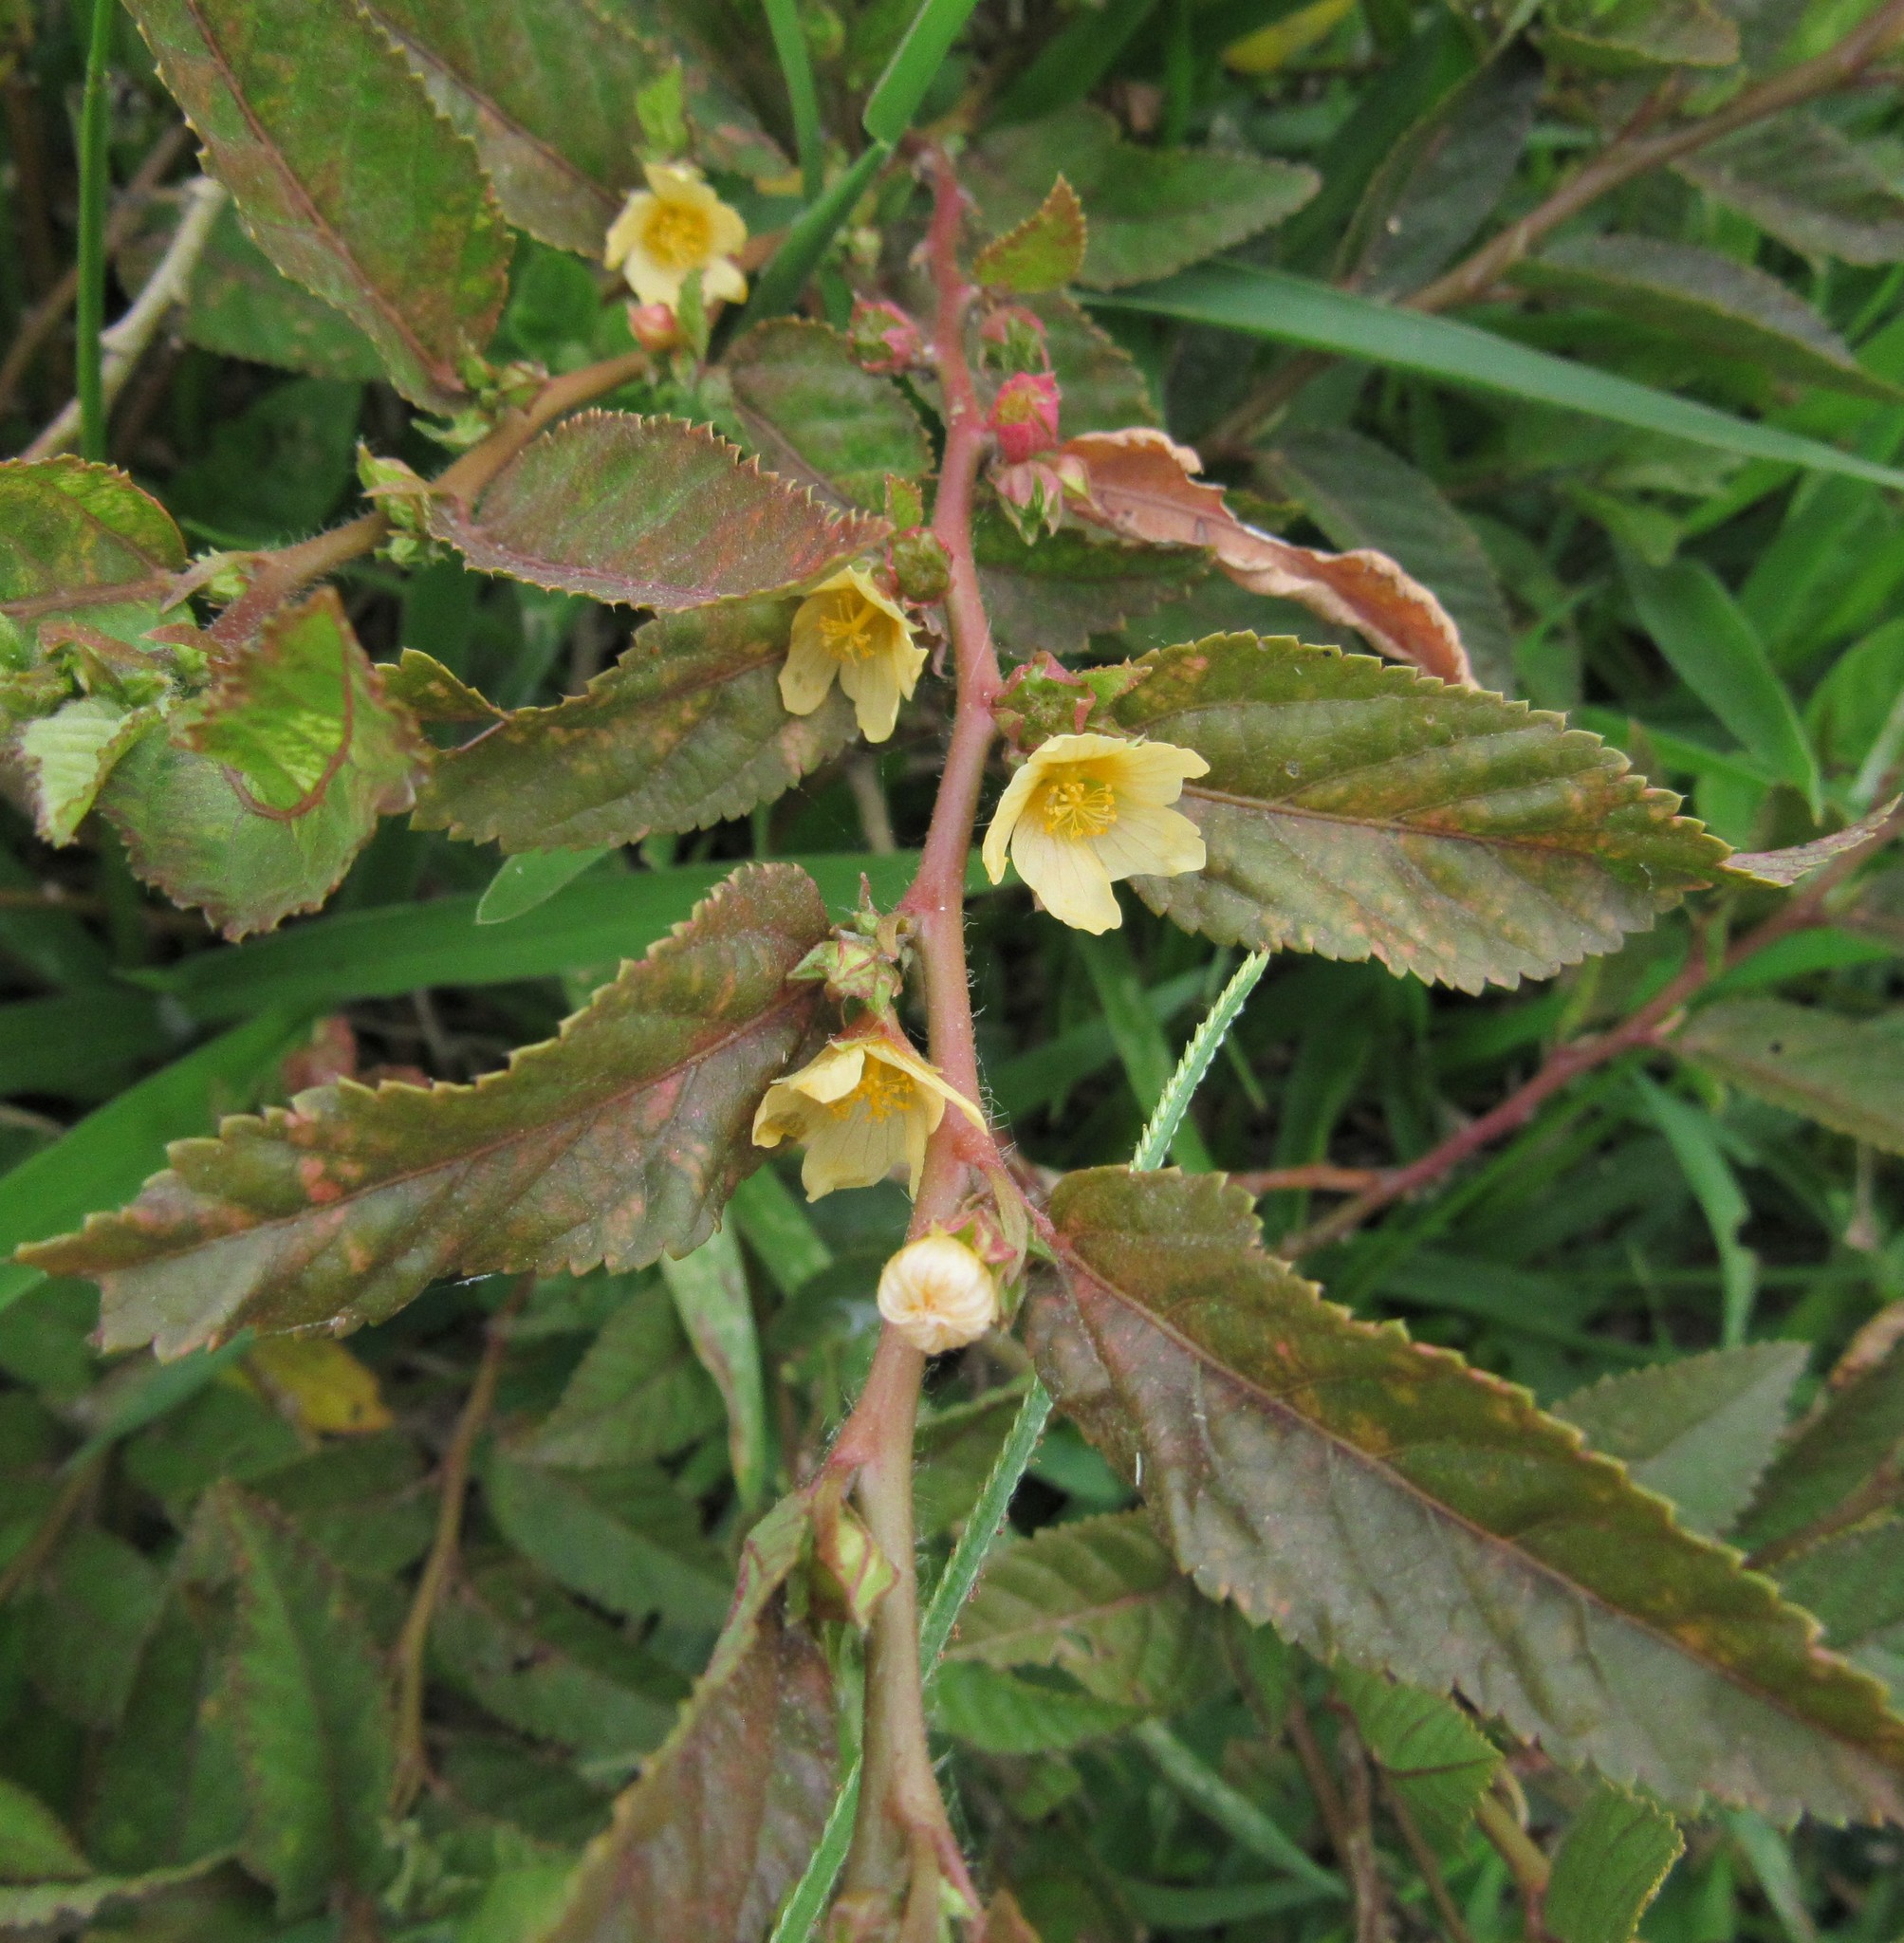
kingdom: Plantae
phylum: Tracheophyta
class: Magnoliopsida
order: Malvales
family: Malvaceae
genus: Sida
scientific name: Sida planicaulis
